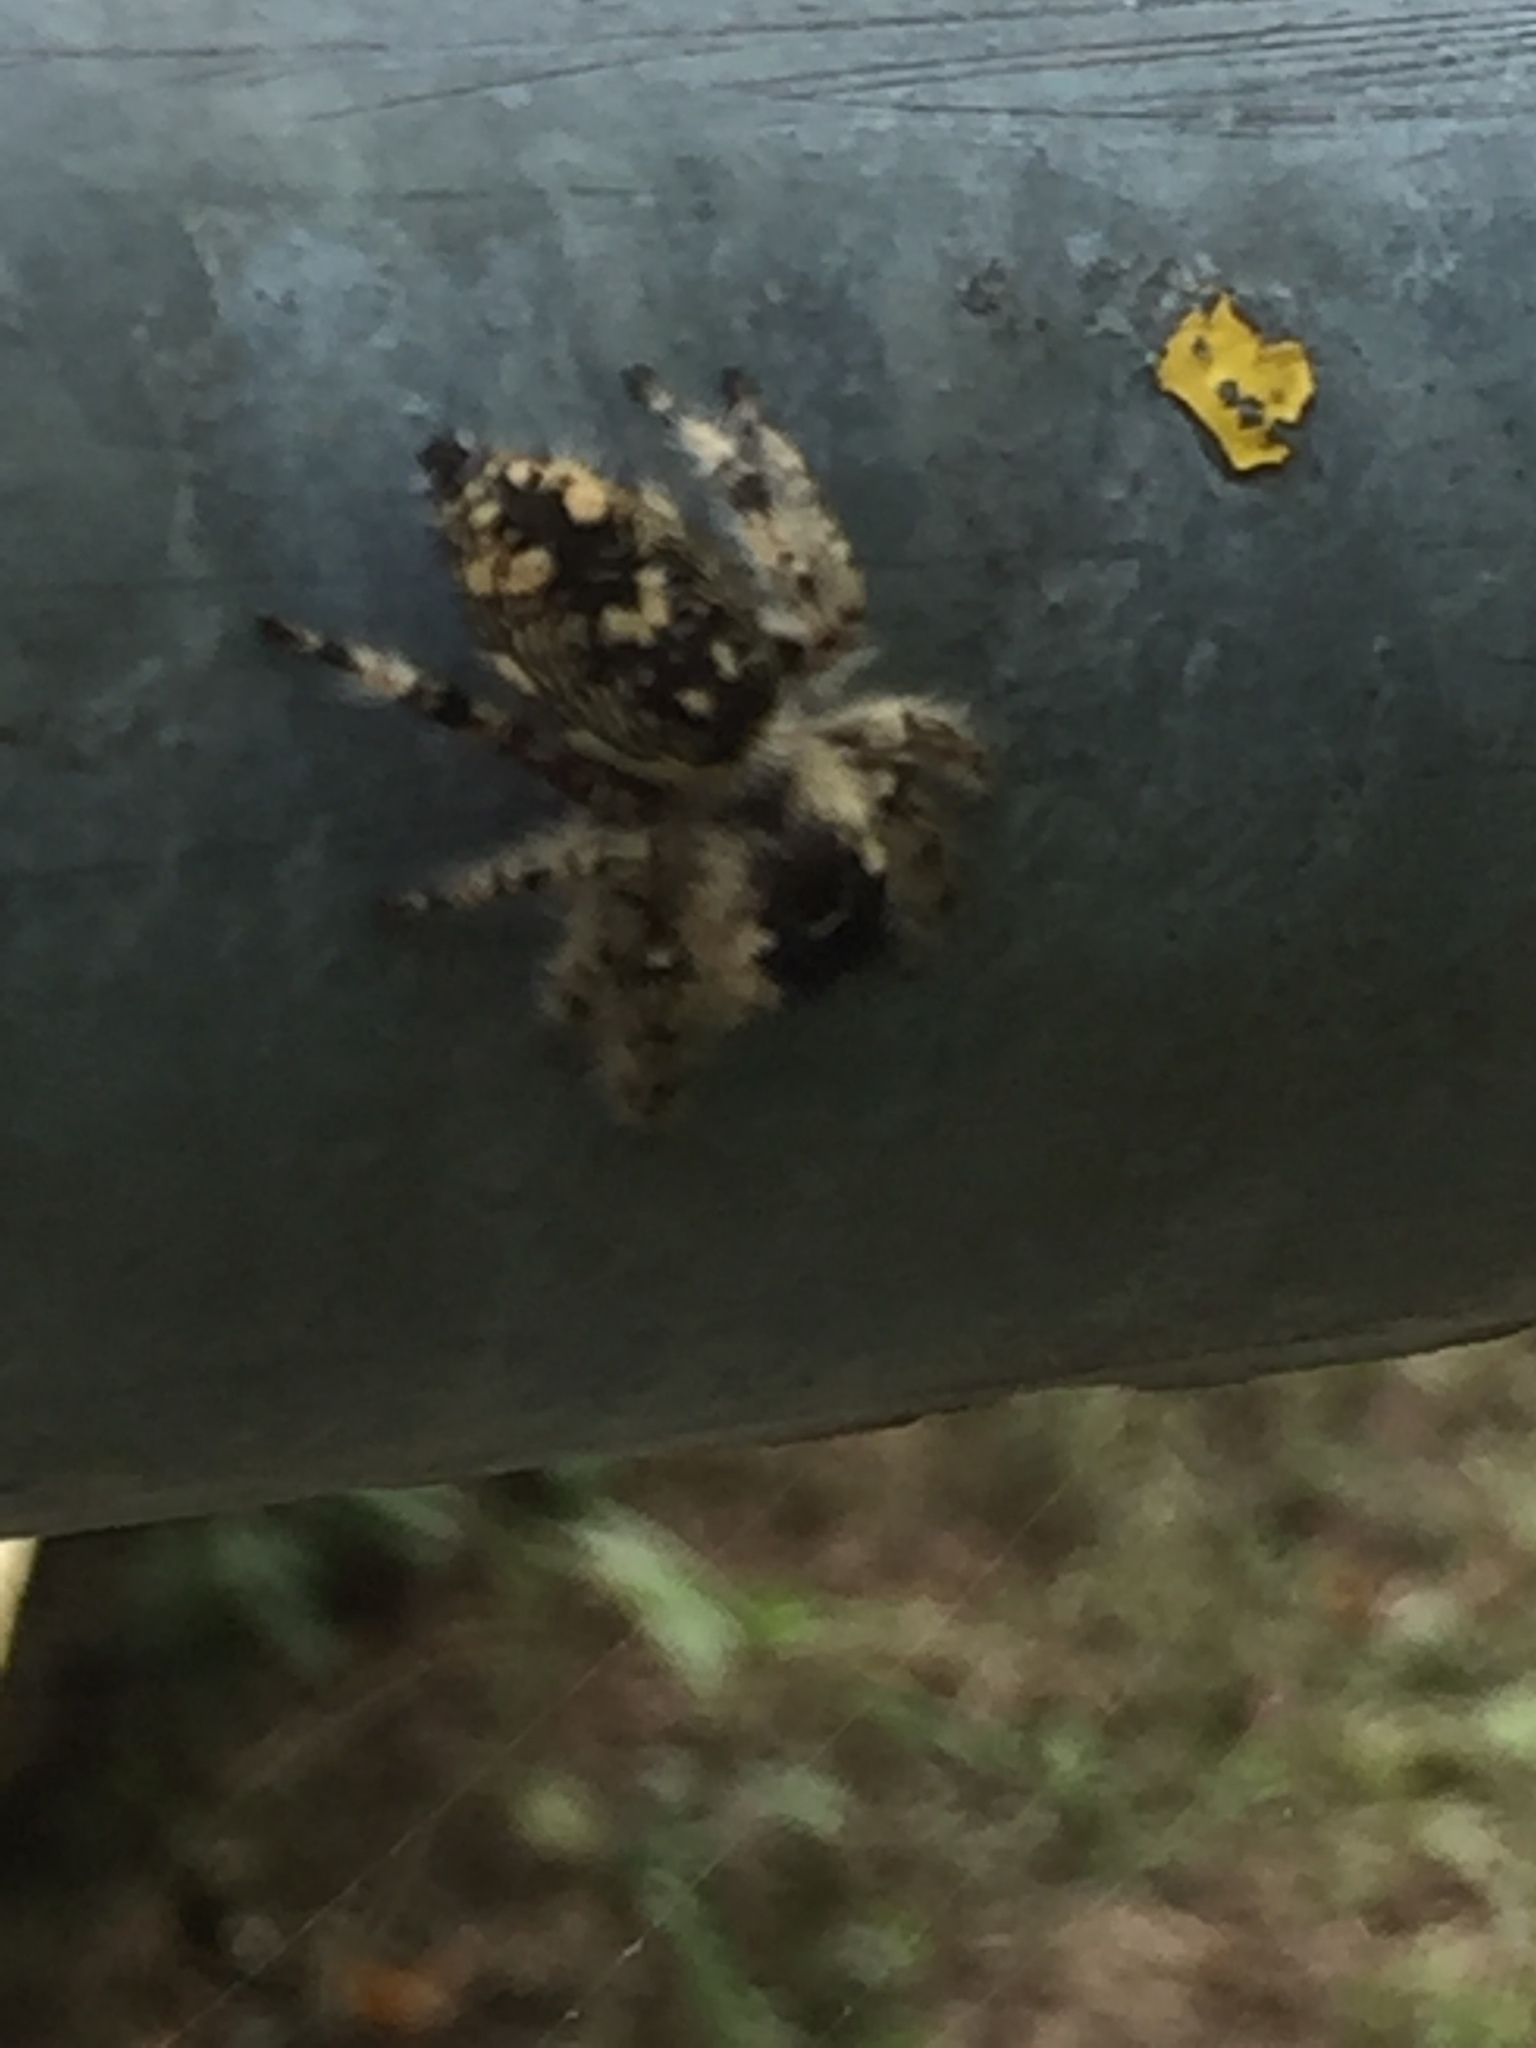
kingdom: Animalia
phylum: Arthropoda
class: Arachnida
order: Araneae
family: Salticidae
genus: Phidippus
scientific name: Phidippus otiosus
